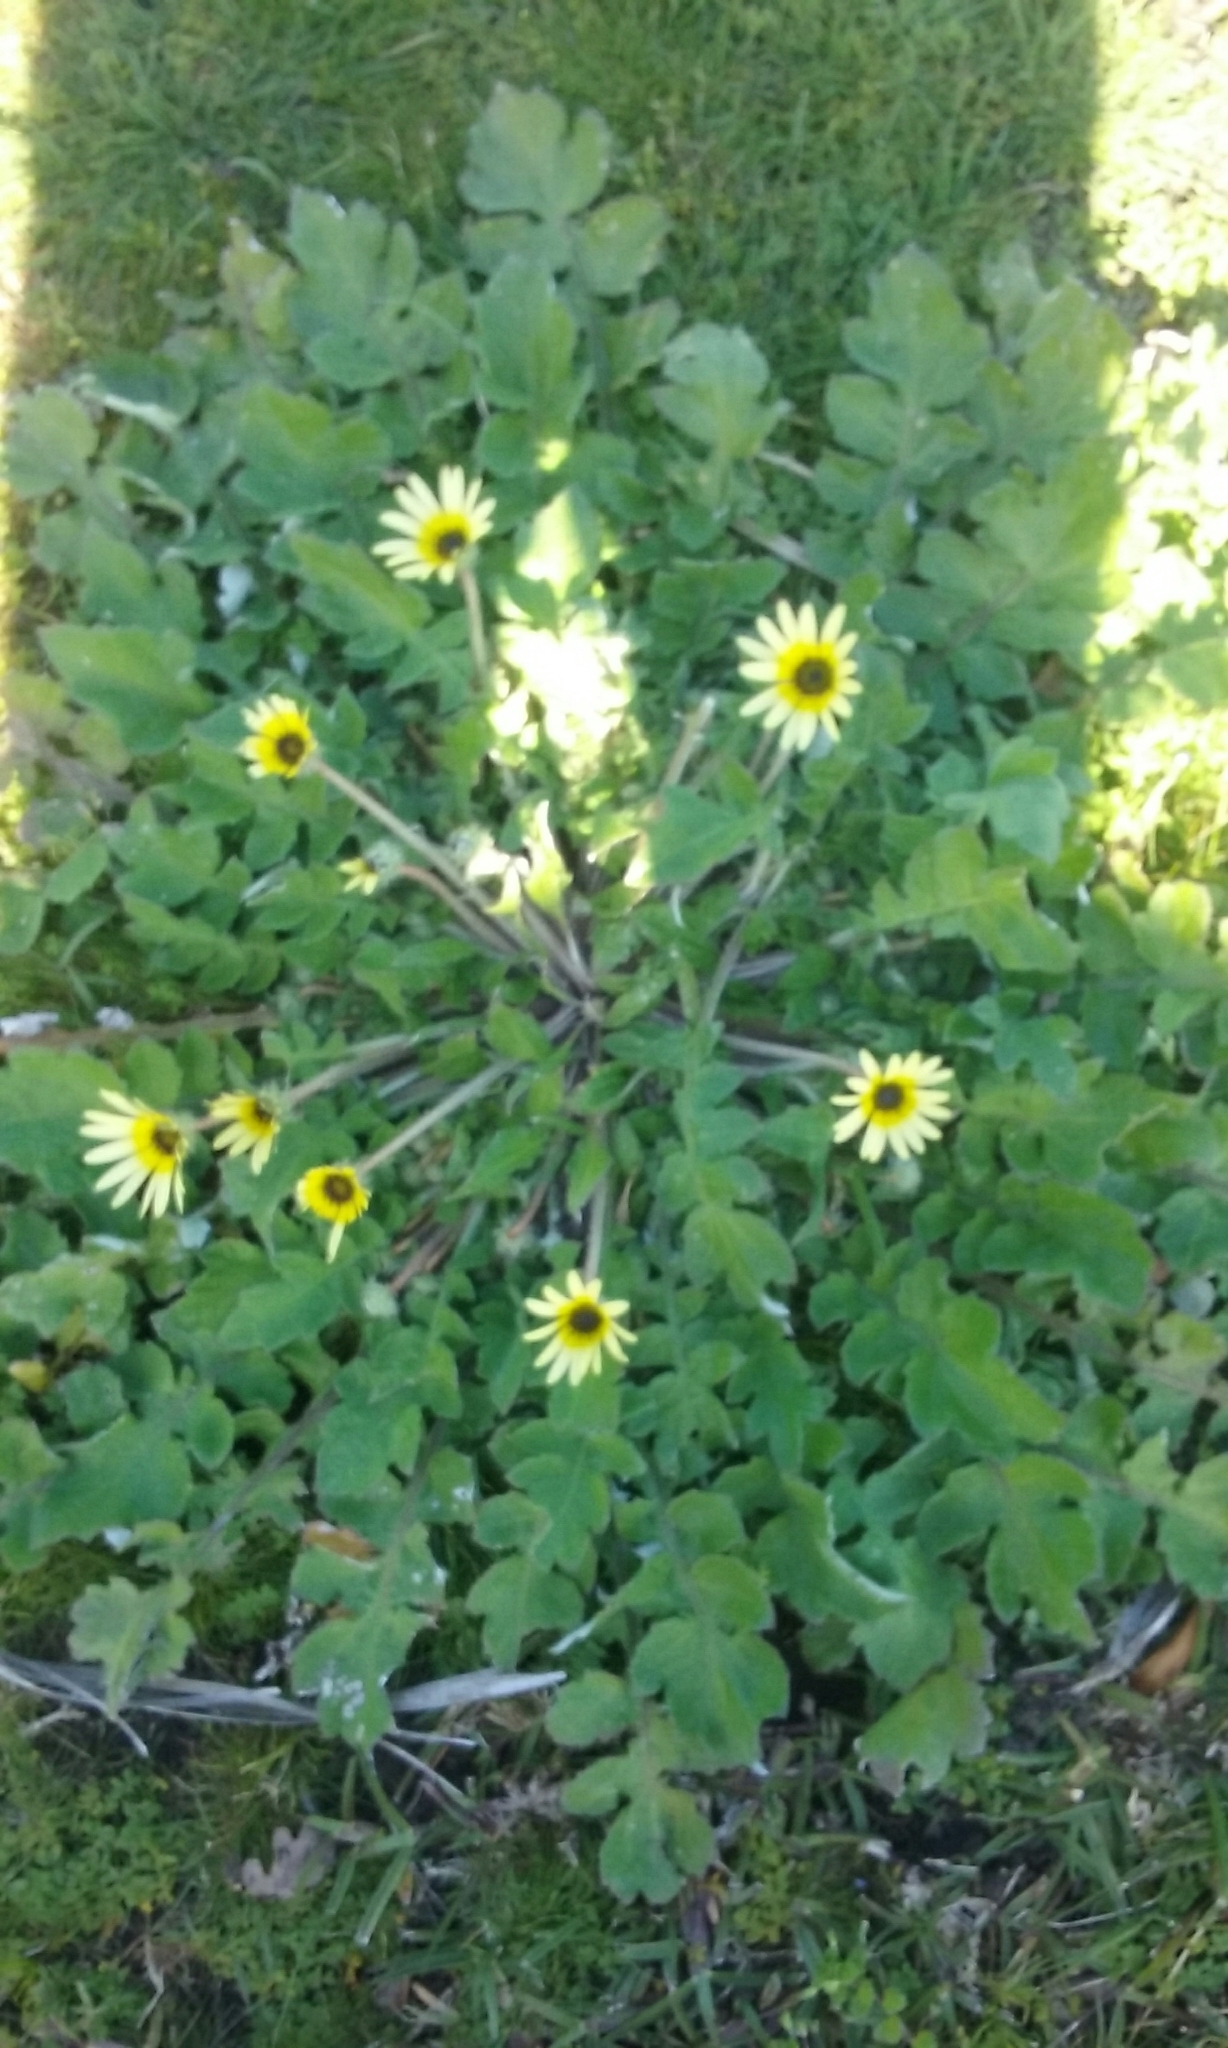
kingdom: Plantae
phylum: Tracheophyta
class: Magnoliopsida
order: Asterales
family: Asteraceae
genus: Arctotheca
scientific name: Arctotheca calendula
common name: Capeweed
